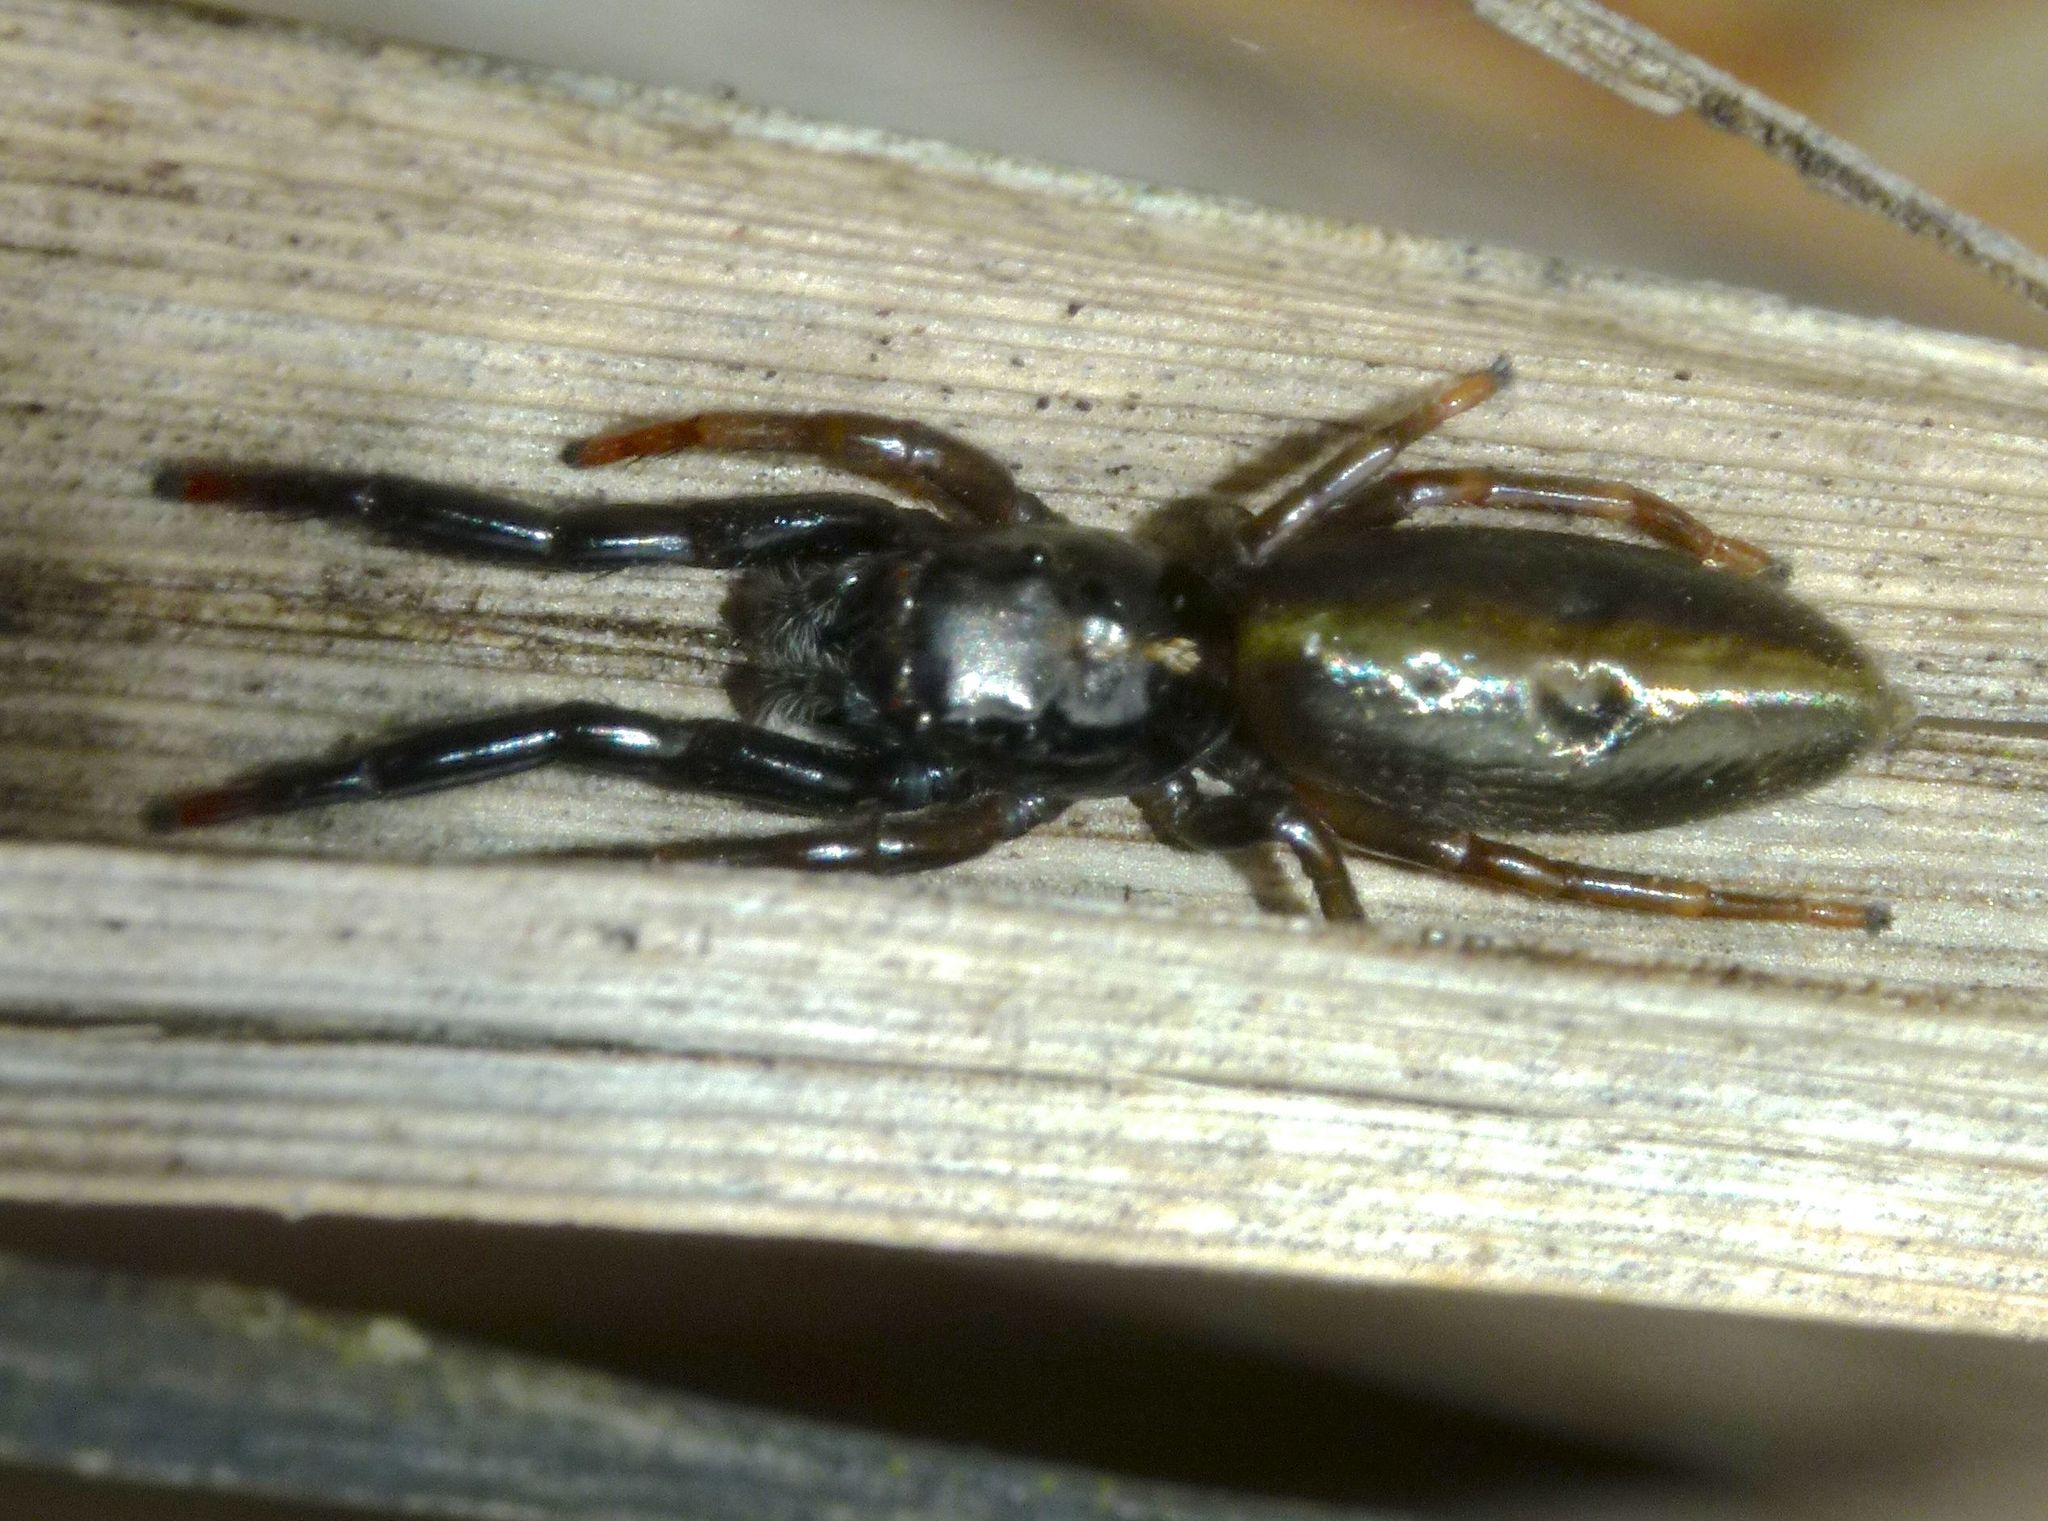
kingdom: Animalia
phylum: Arthropoda
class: Arachnida
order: Araneae
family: Salticidae
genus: Trite
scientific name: Trite planiceps
